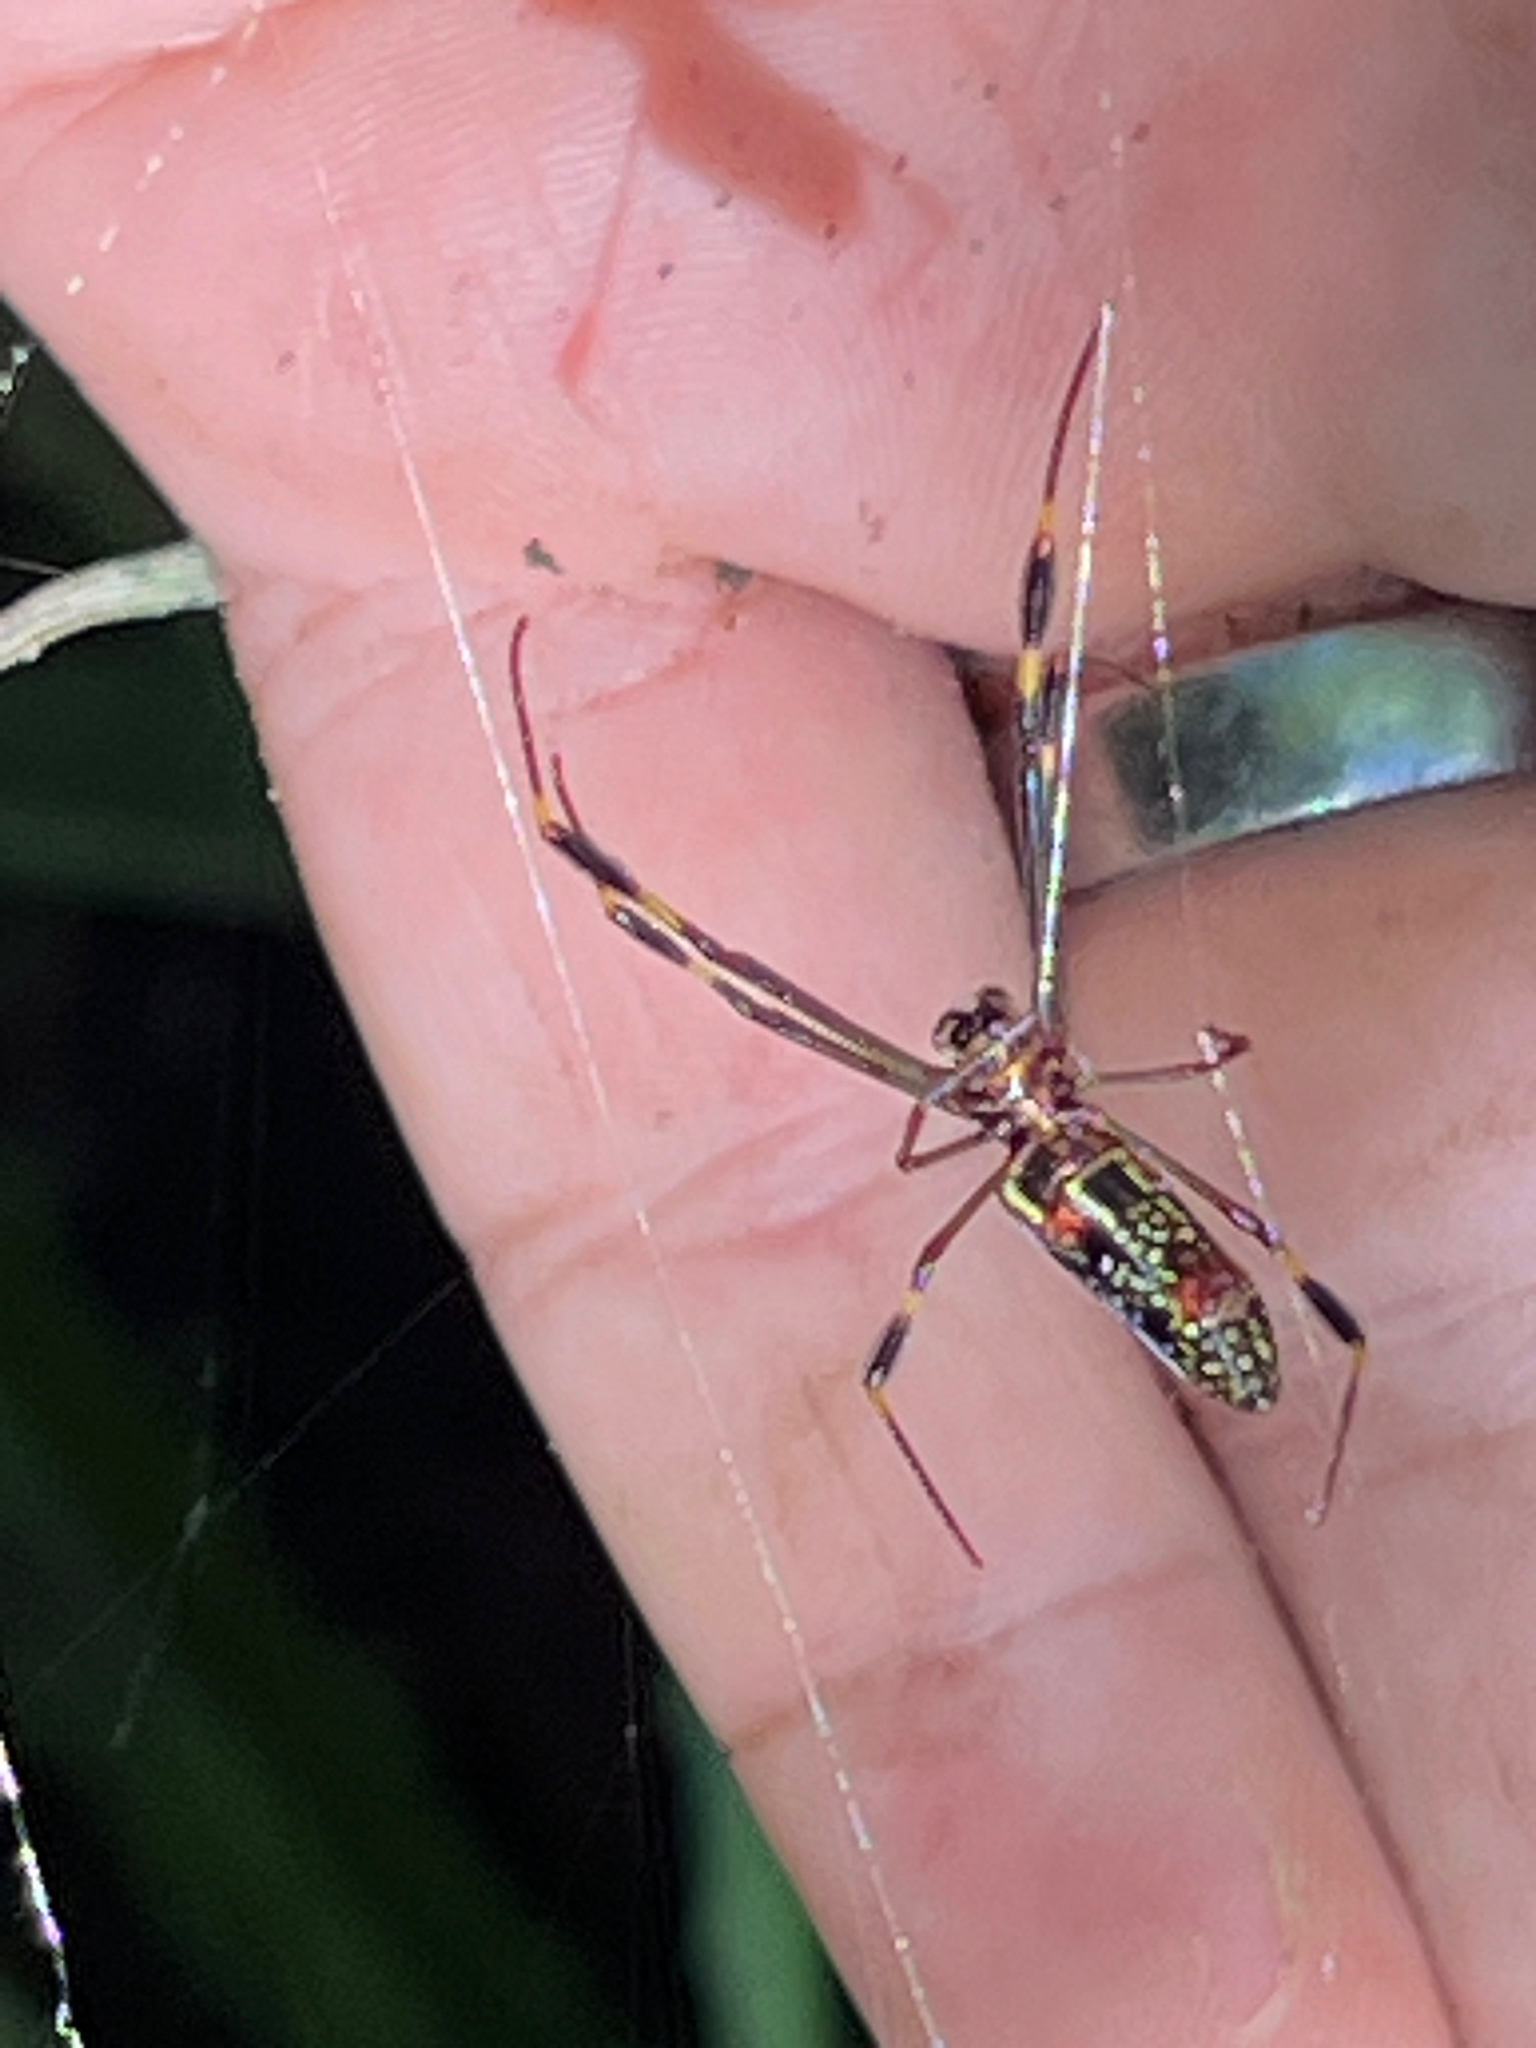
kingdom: Animalia
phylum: Arthropoda
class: Arachnida
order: Araneae
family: Araneidae
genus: Trichonephila
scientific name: Trichonephila clavipes
